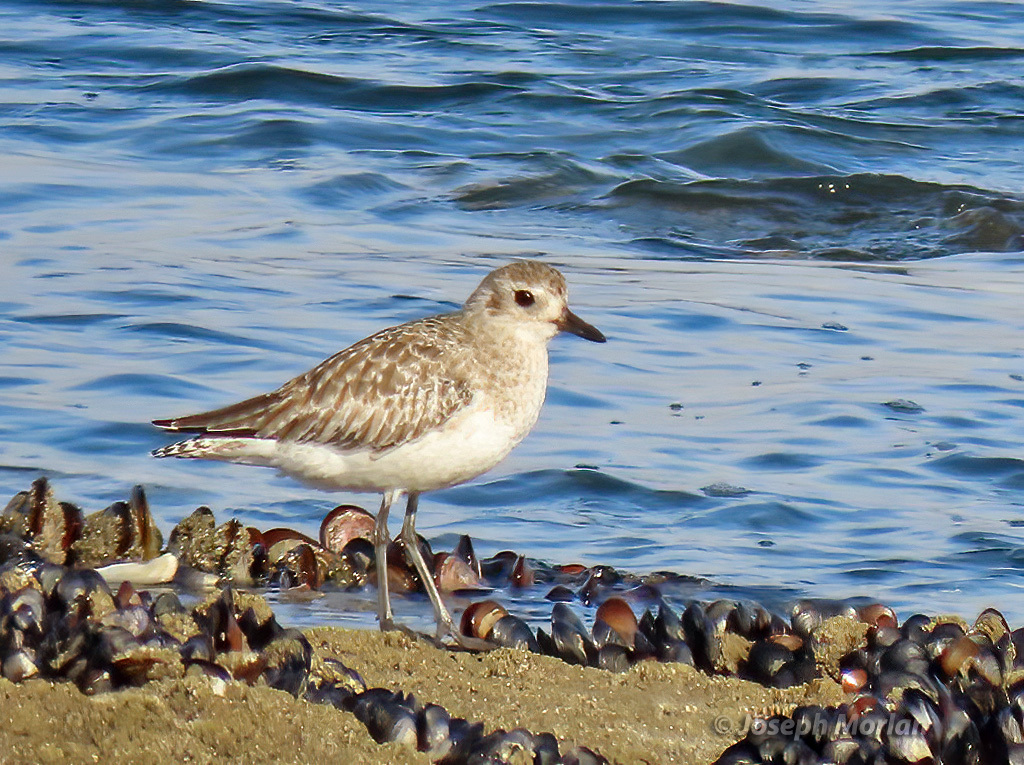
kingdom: Animalia
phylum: Chordata
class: Aves
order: Charadriiformes
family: Charadriidae
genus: Pluvialis
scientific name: Pluvialis squatarola
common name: Grey plover
